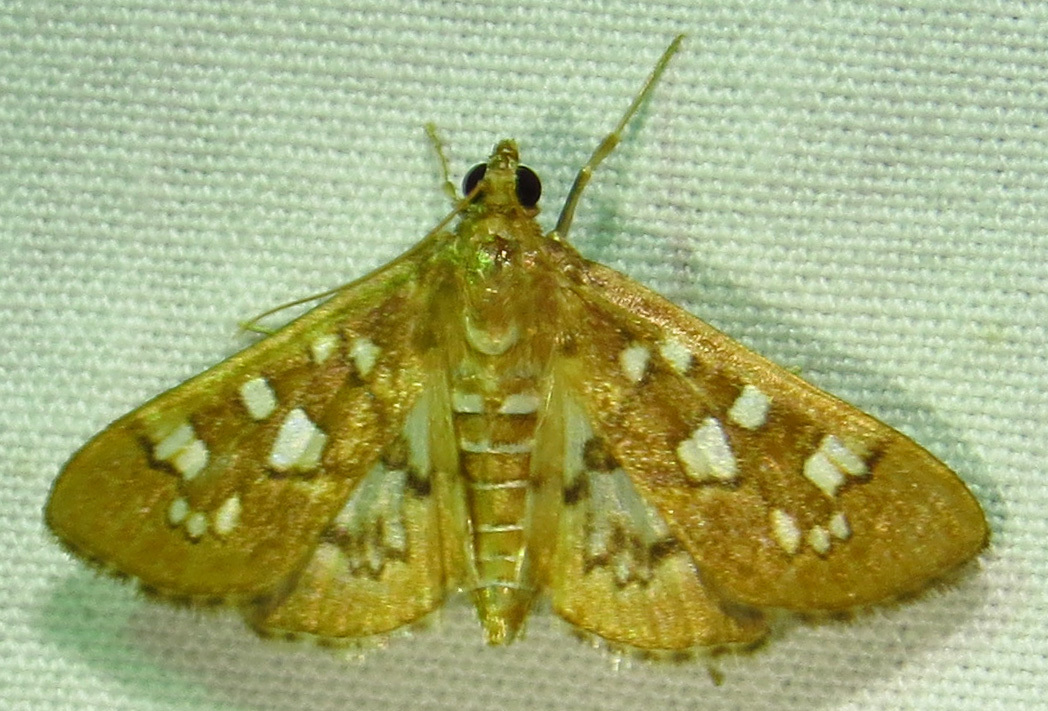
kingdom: Animalia
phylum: Arthropoda
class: Insecta
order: Lepidoptera
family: Crambidae
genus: Samea
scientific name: Samea baccatalis
